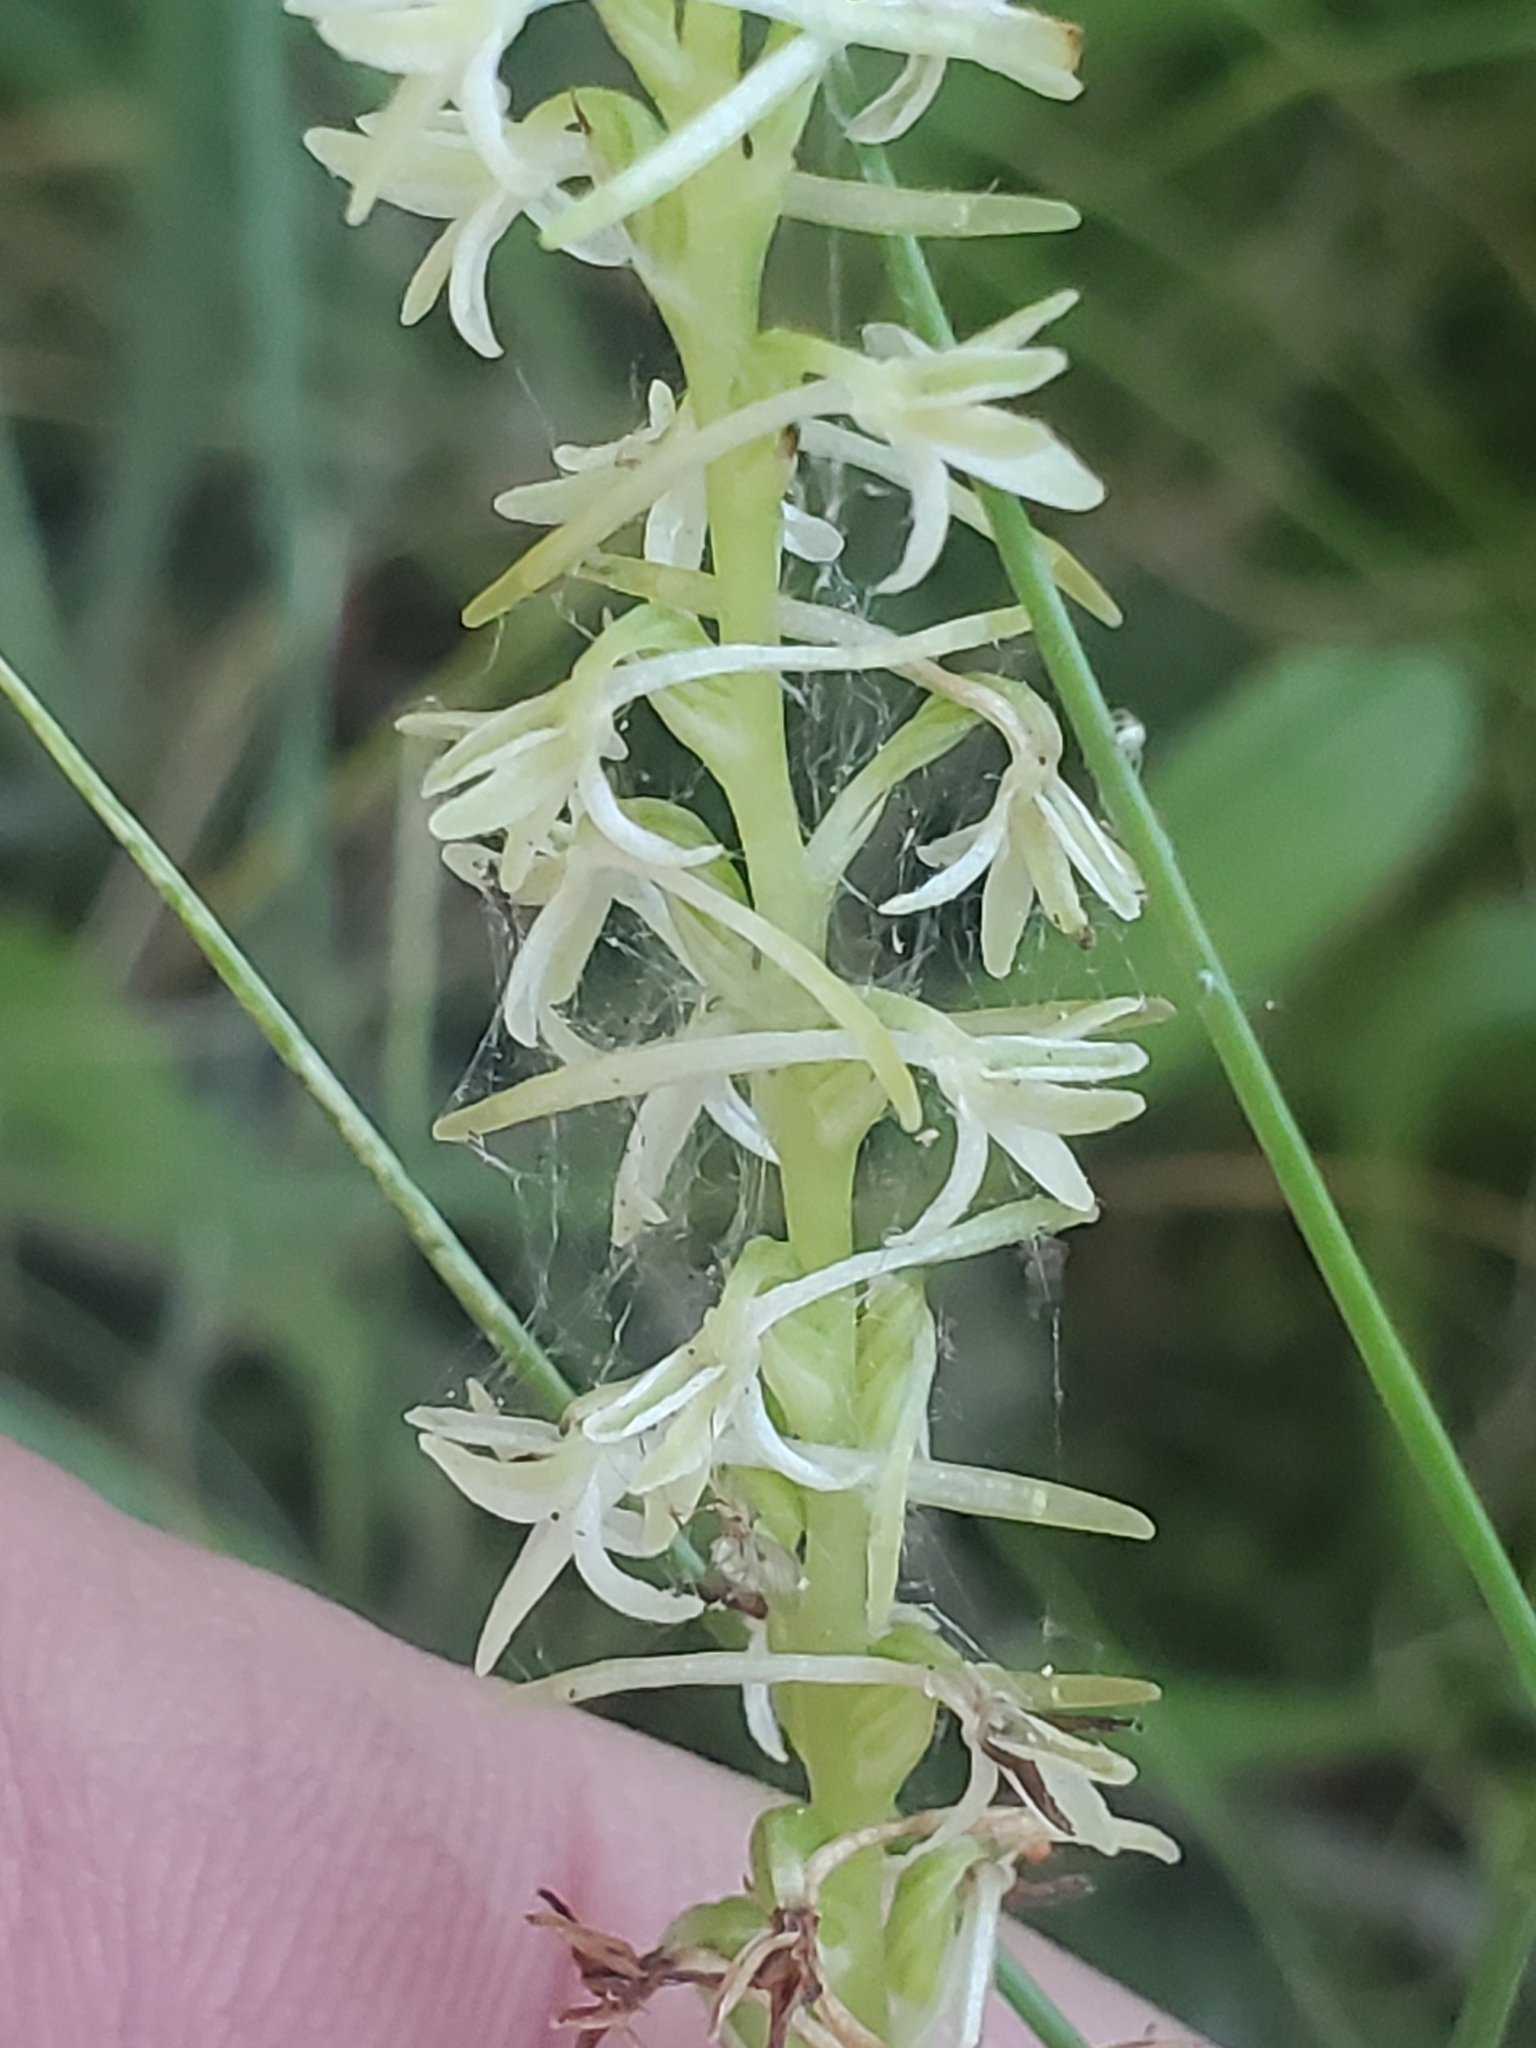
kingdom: Plantae
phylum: Tracheophyta
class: Liliopsida
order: Asparagales
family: Orchidaceae
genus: Platanthera
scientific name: Platanthera transversa
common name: Royal rein orchid
